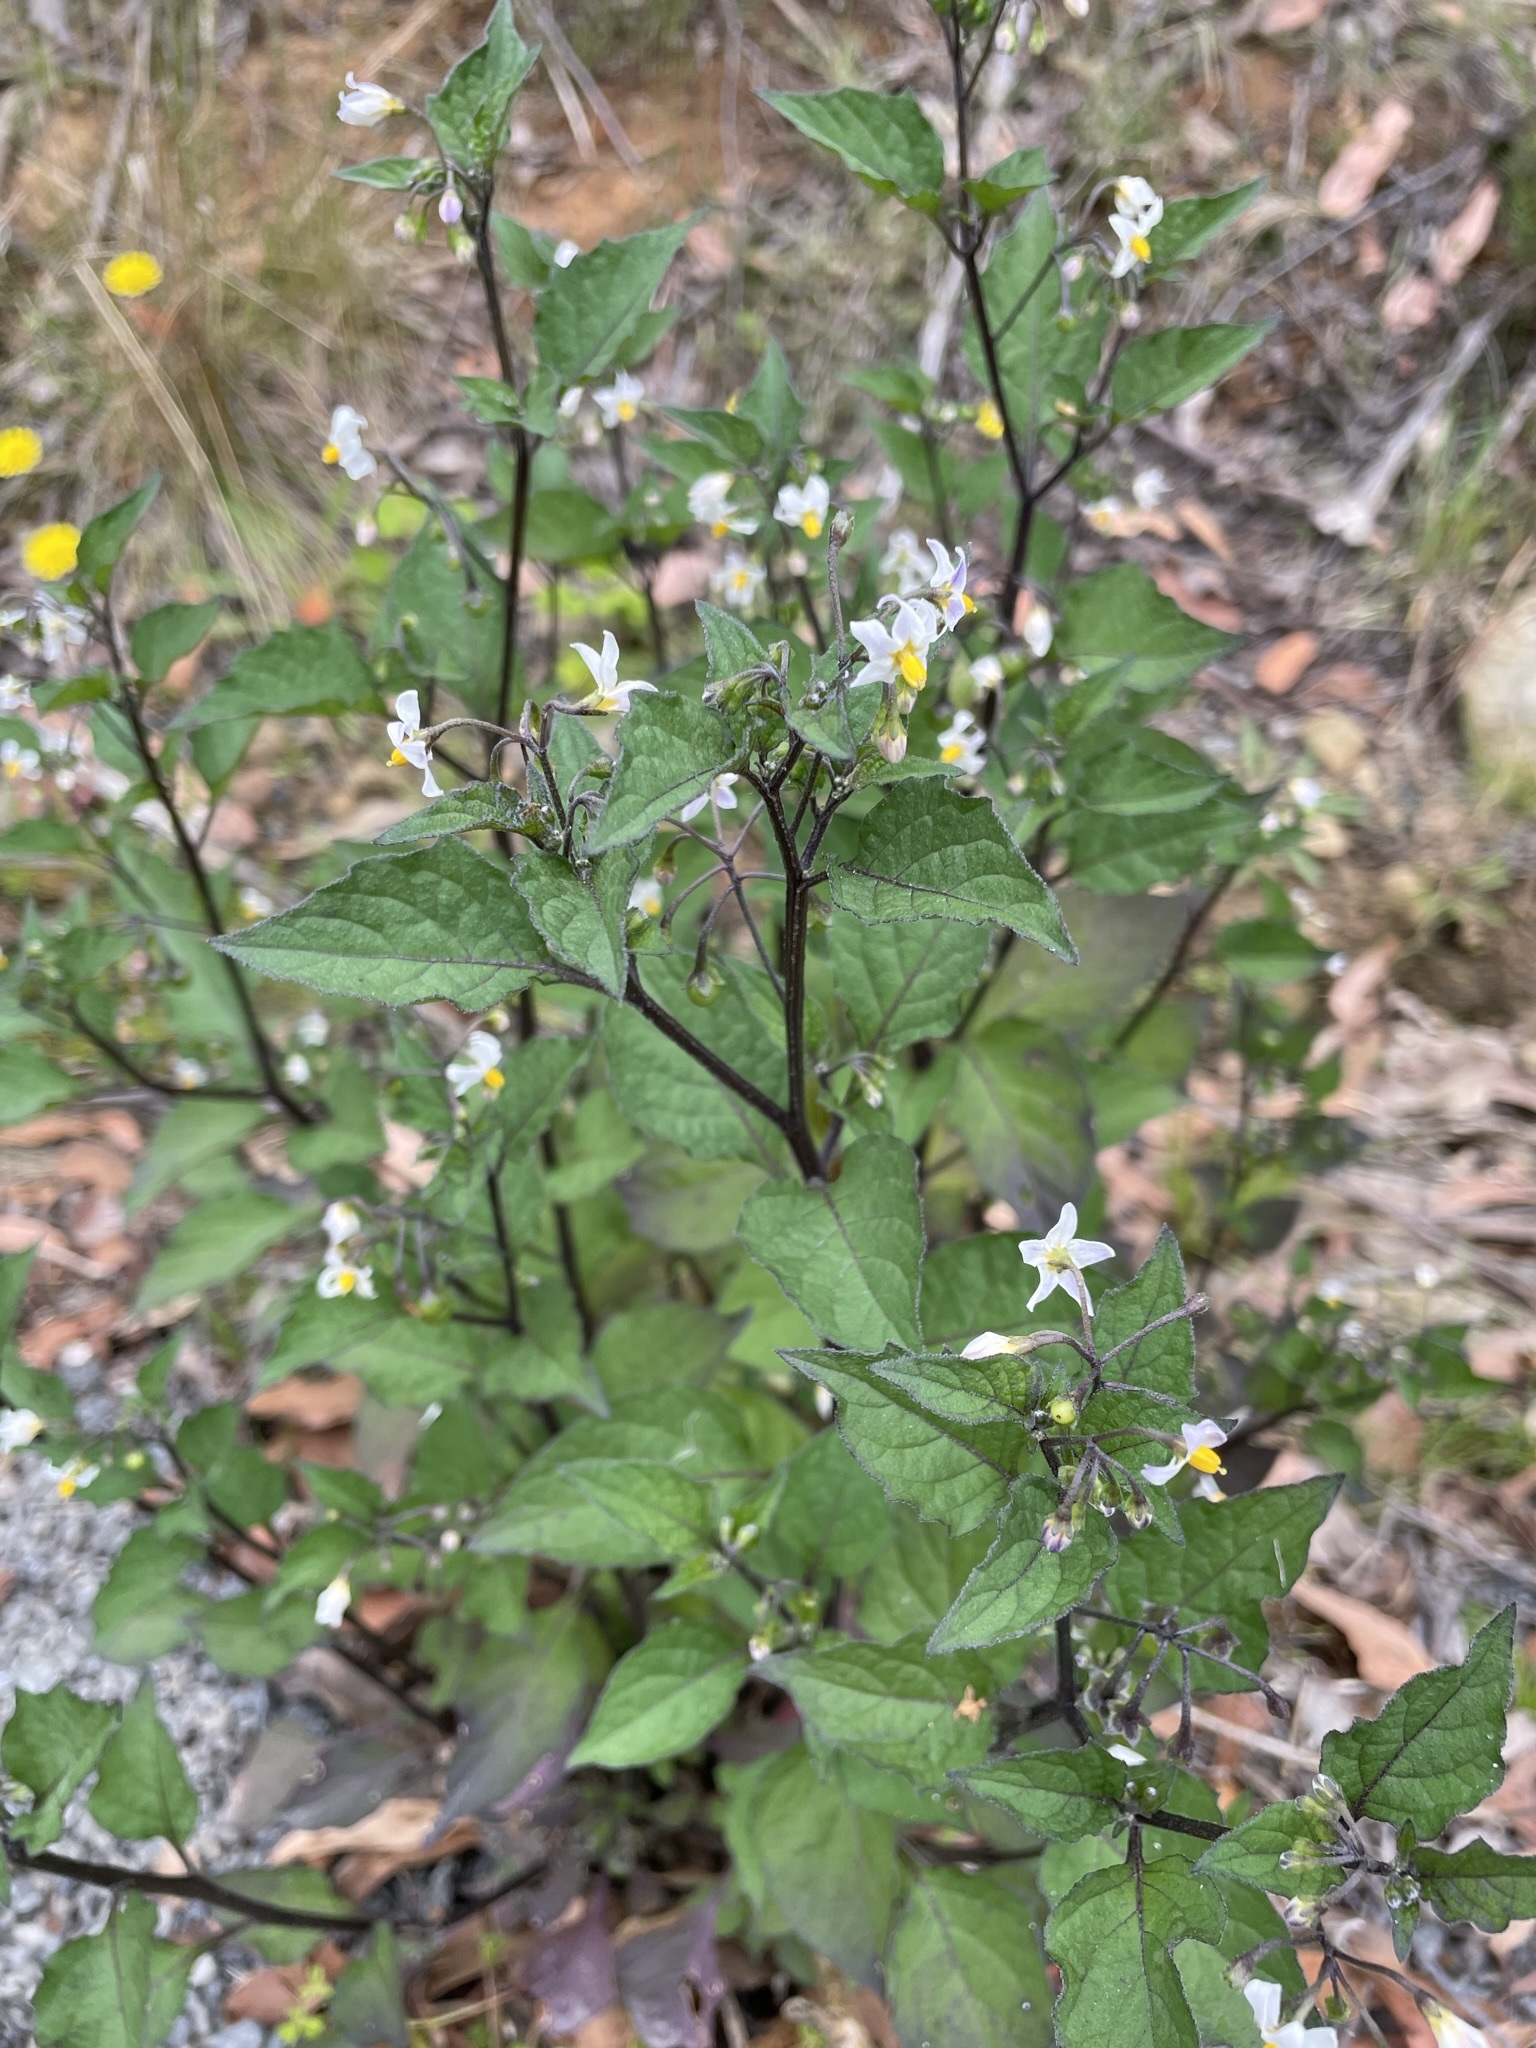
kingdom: Plantae
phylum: Tracheophyta
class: Magnoliopsida
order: Solanales
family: Solanaceae
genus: Solanum
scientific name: Solanum nigrum
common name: Black nightshade
